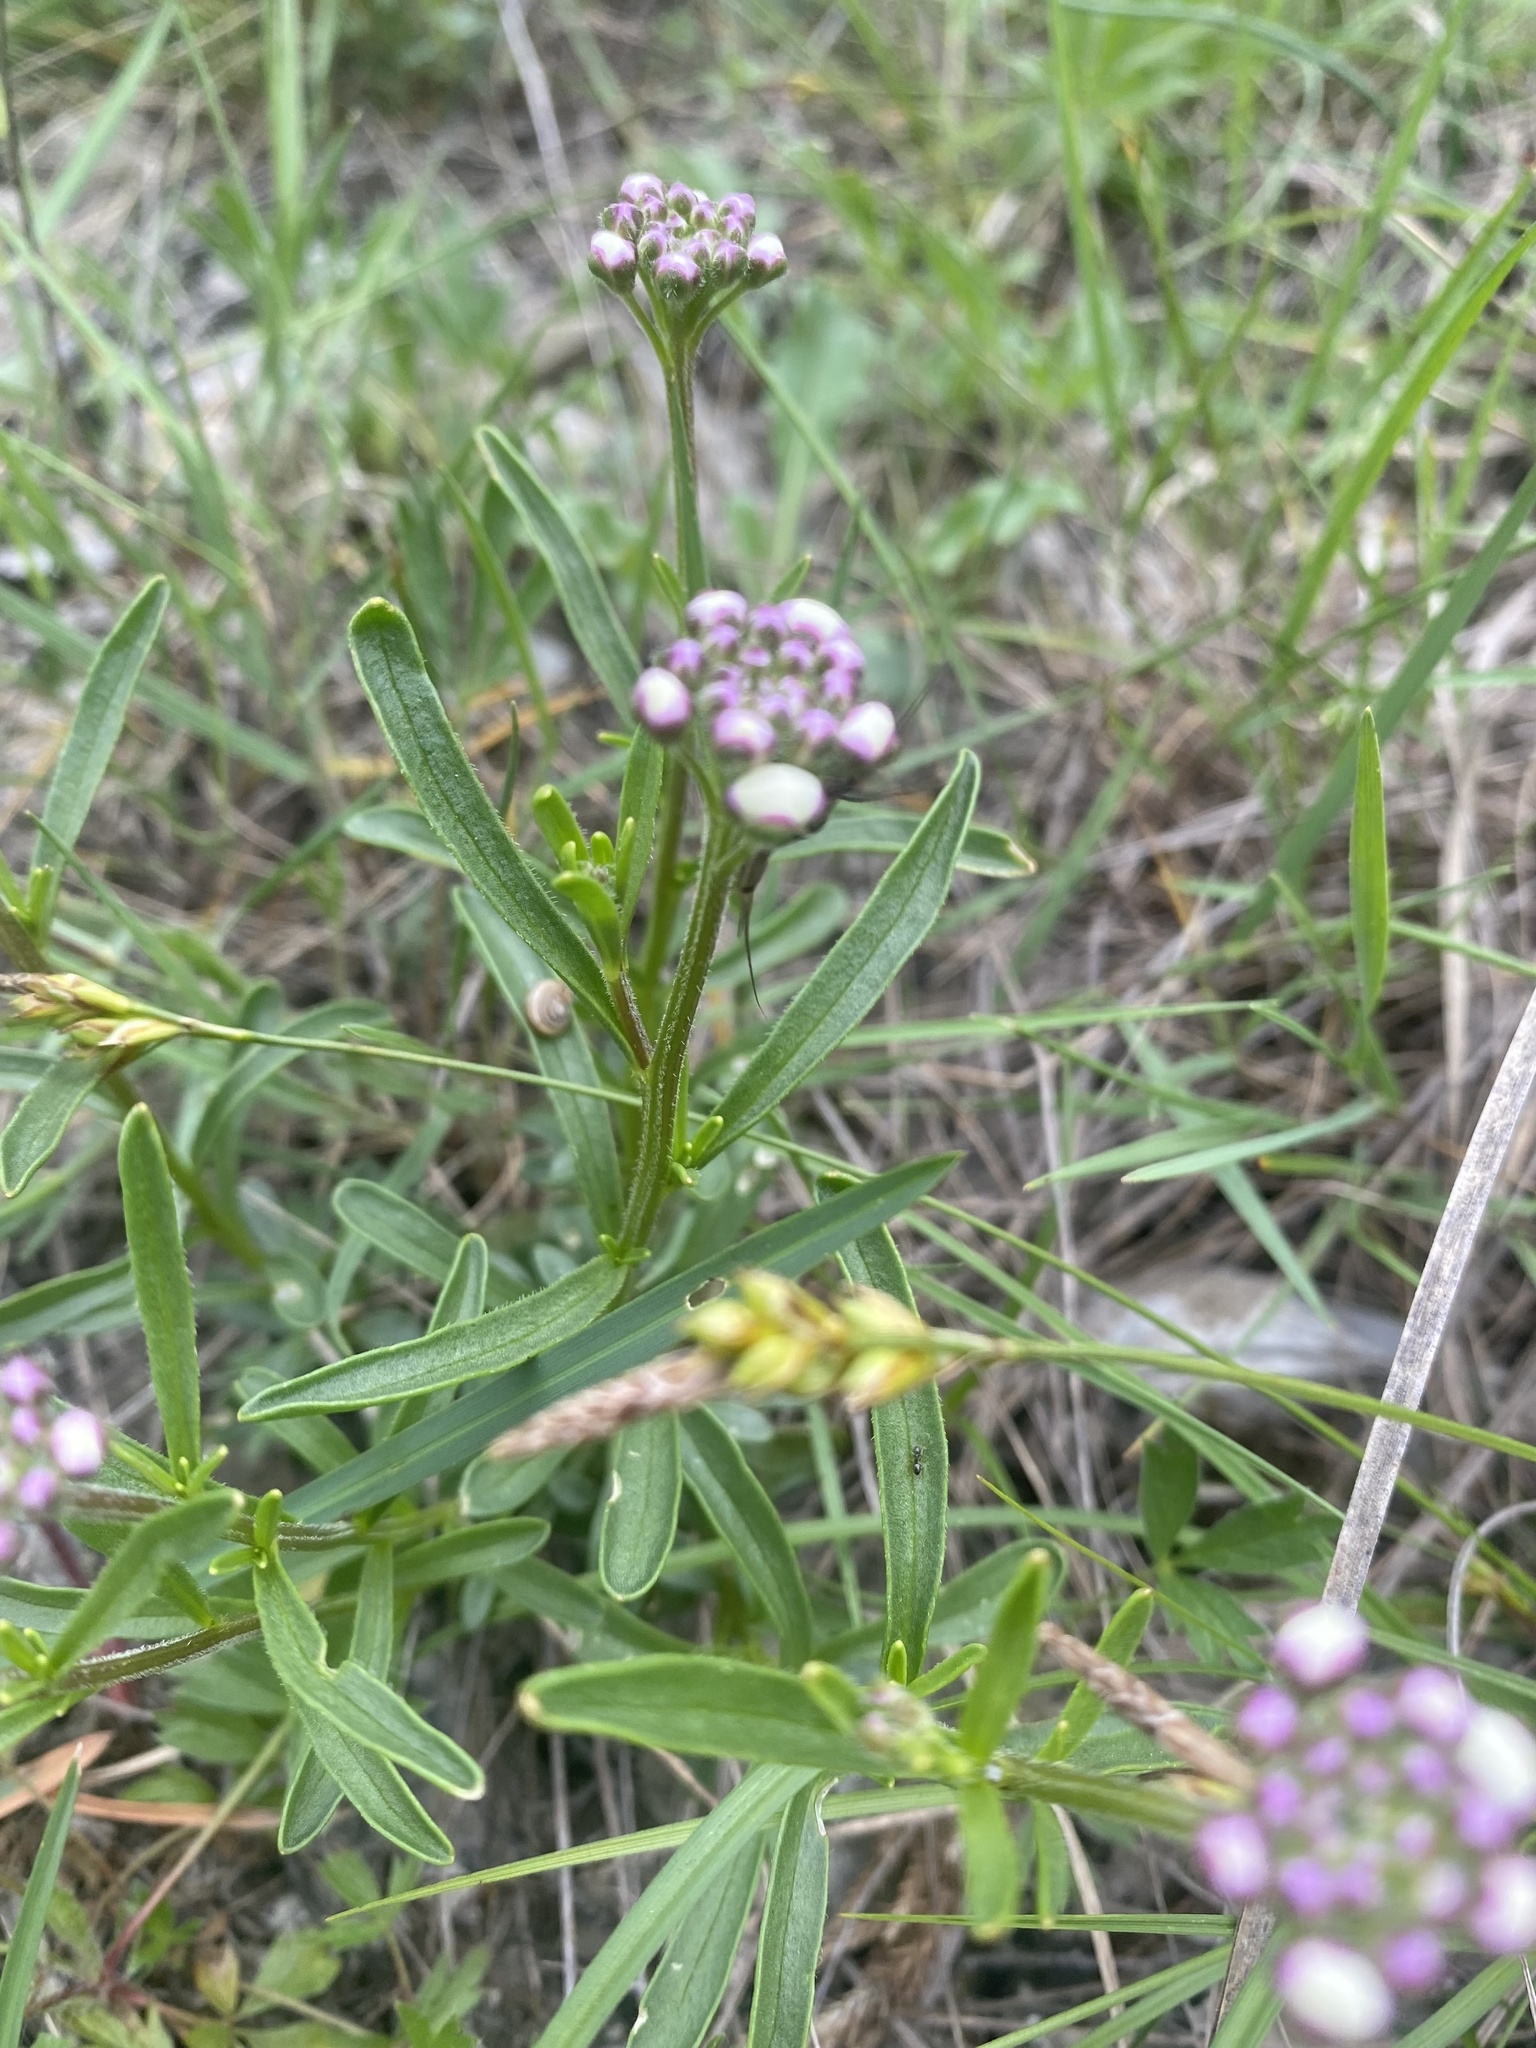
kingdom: Plantae
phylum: Tracheophyta
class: Magnoliopsida
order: Brassicales
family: Brassicaceae
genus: Iberis
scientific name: Iberis simplex
